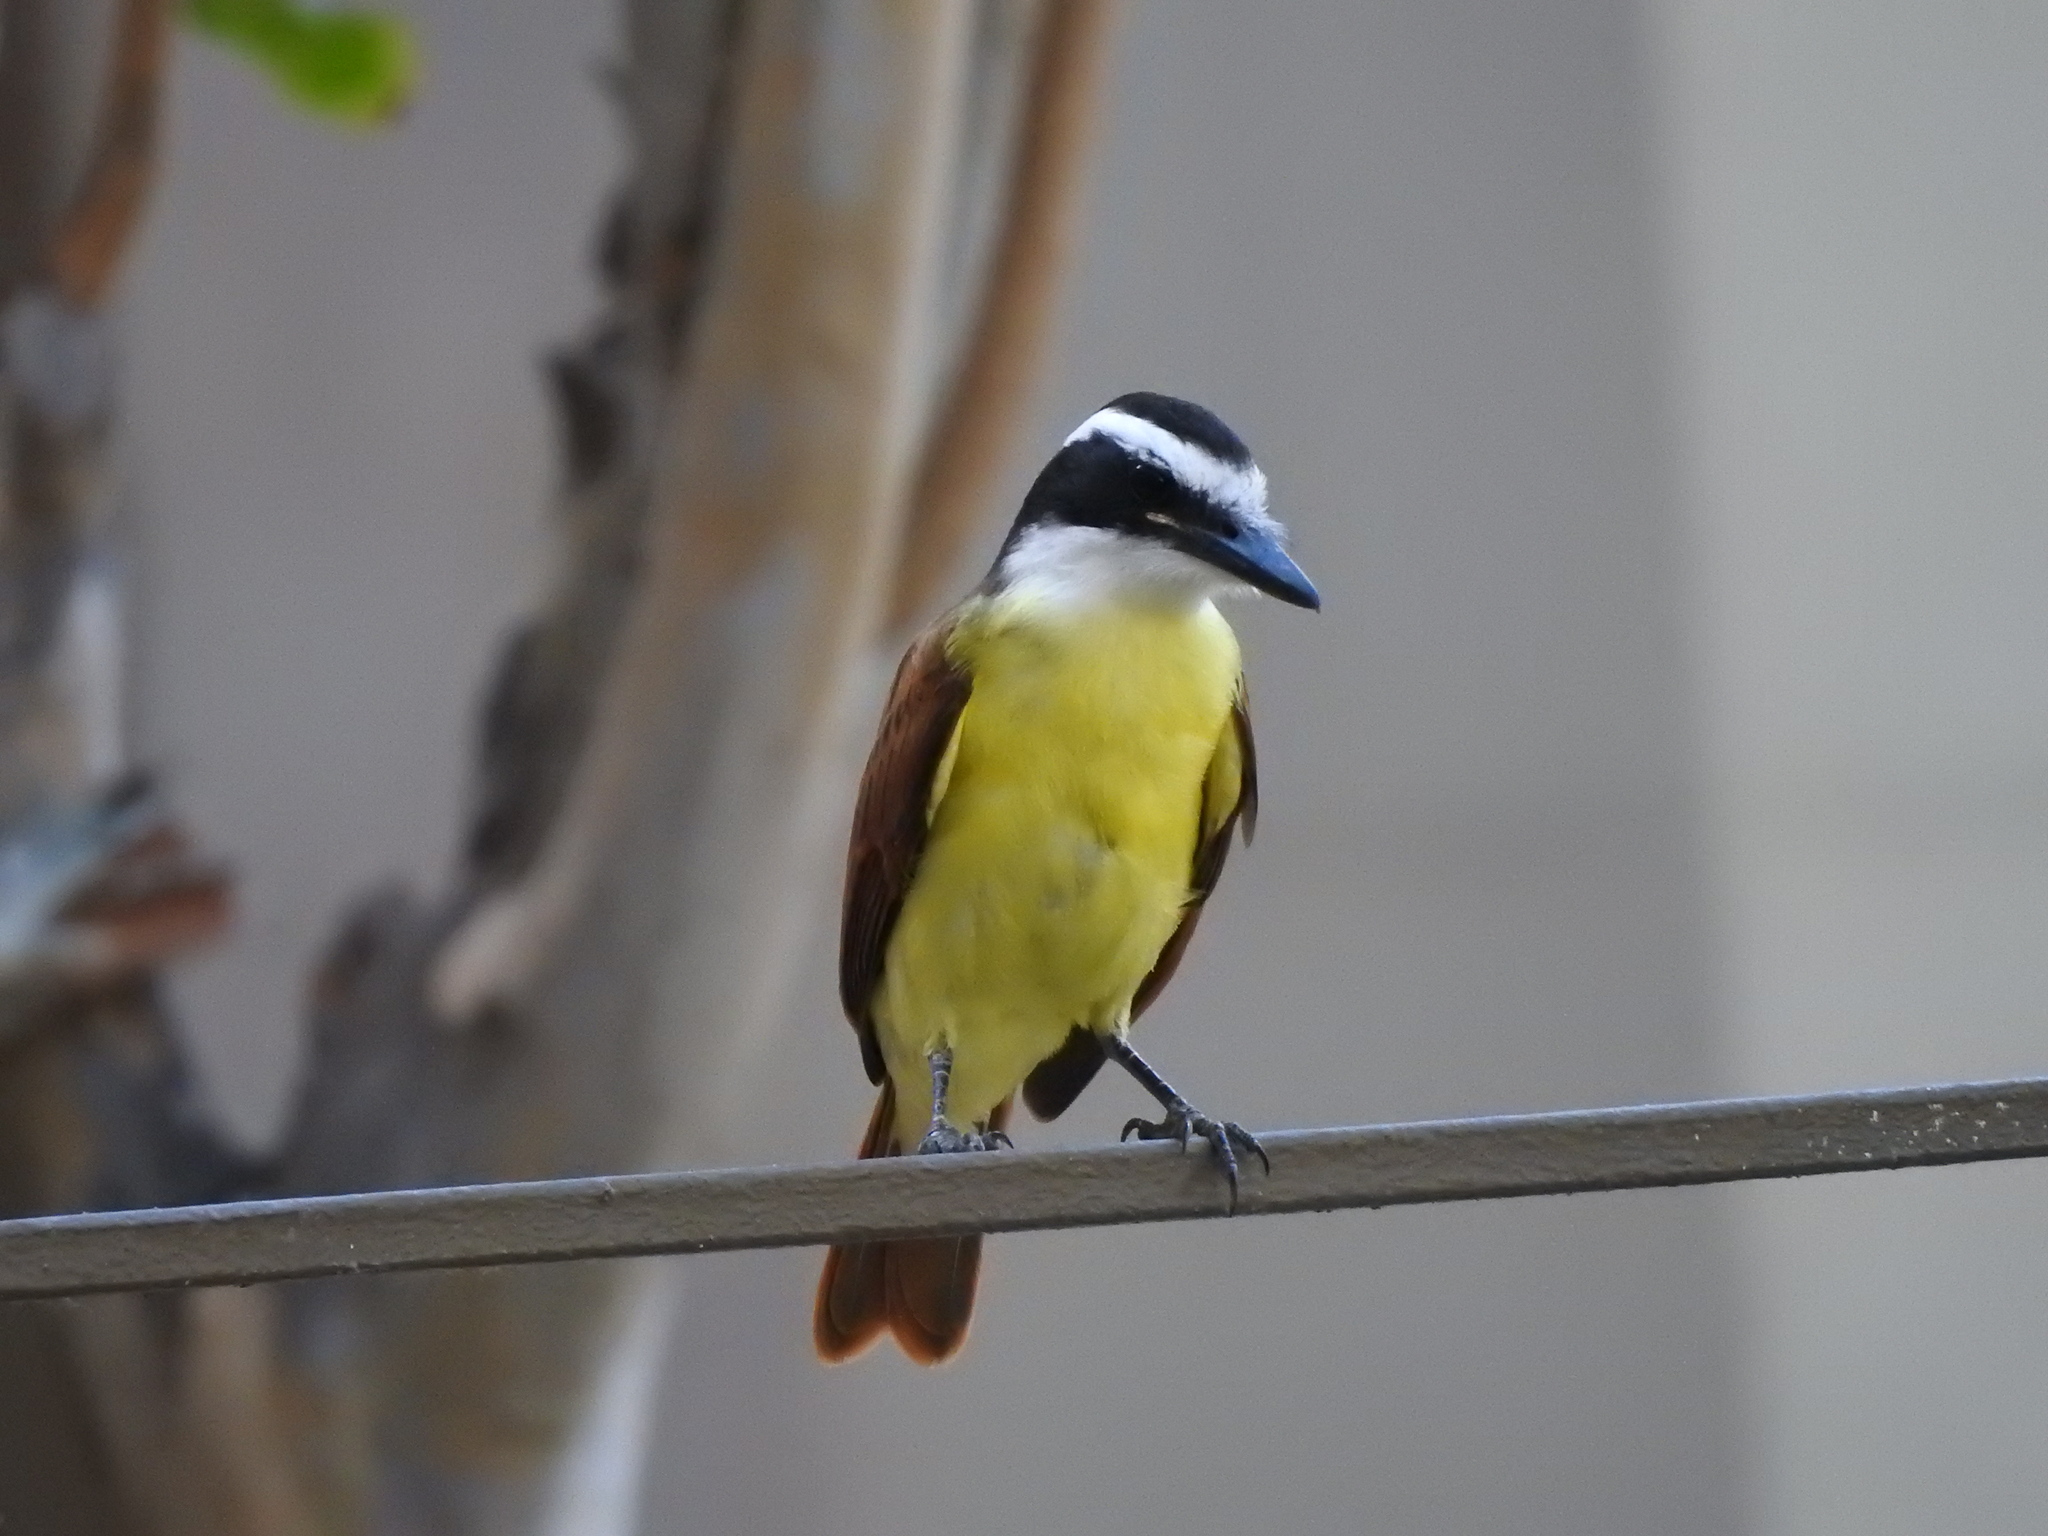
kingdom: Animalia
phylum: Chordata
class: Aves
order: Passeriformes
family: Tyrannidae
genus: Pitangus
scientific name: Pitangus sulphuratus
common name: Great kiskadee
